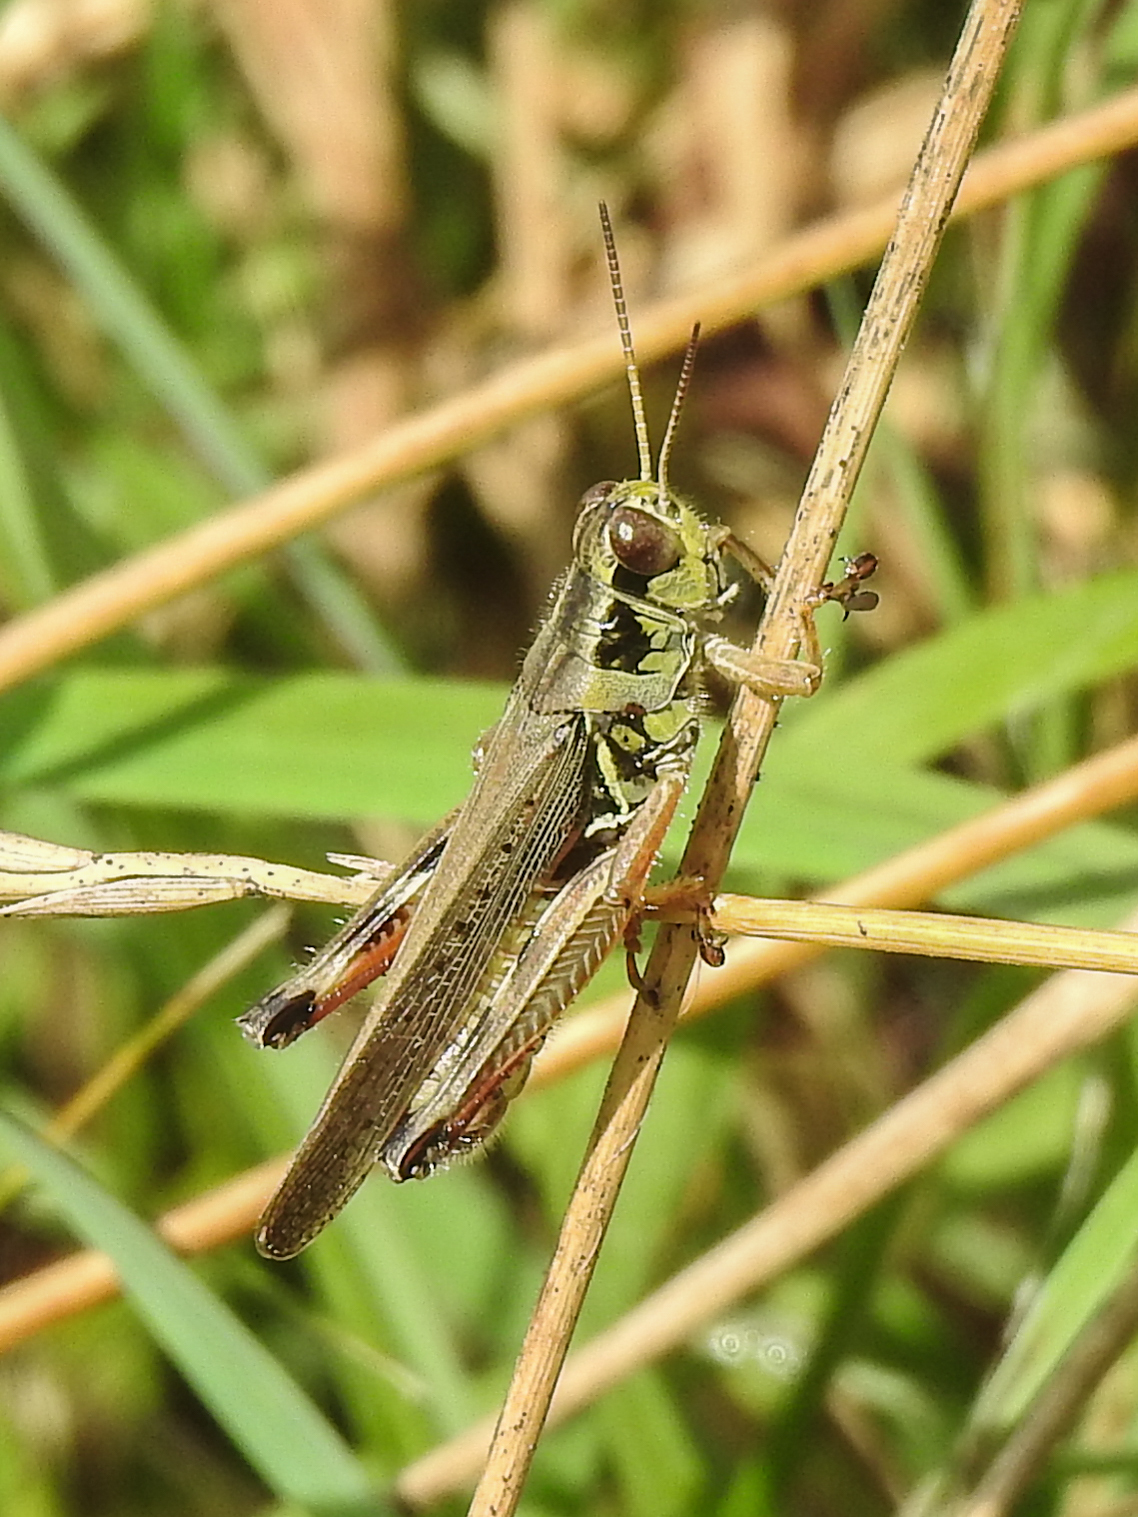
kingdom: Animalia
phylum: Arthropoda
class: Insecta
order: Orthoptera
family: Acrididae
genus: Melanoplus
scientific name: Melanoplus femurrubrum
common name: Red-legged grasshopper
